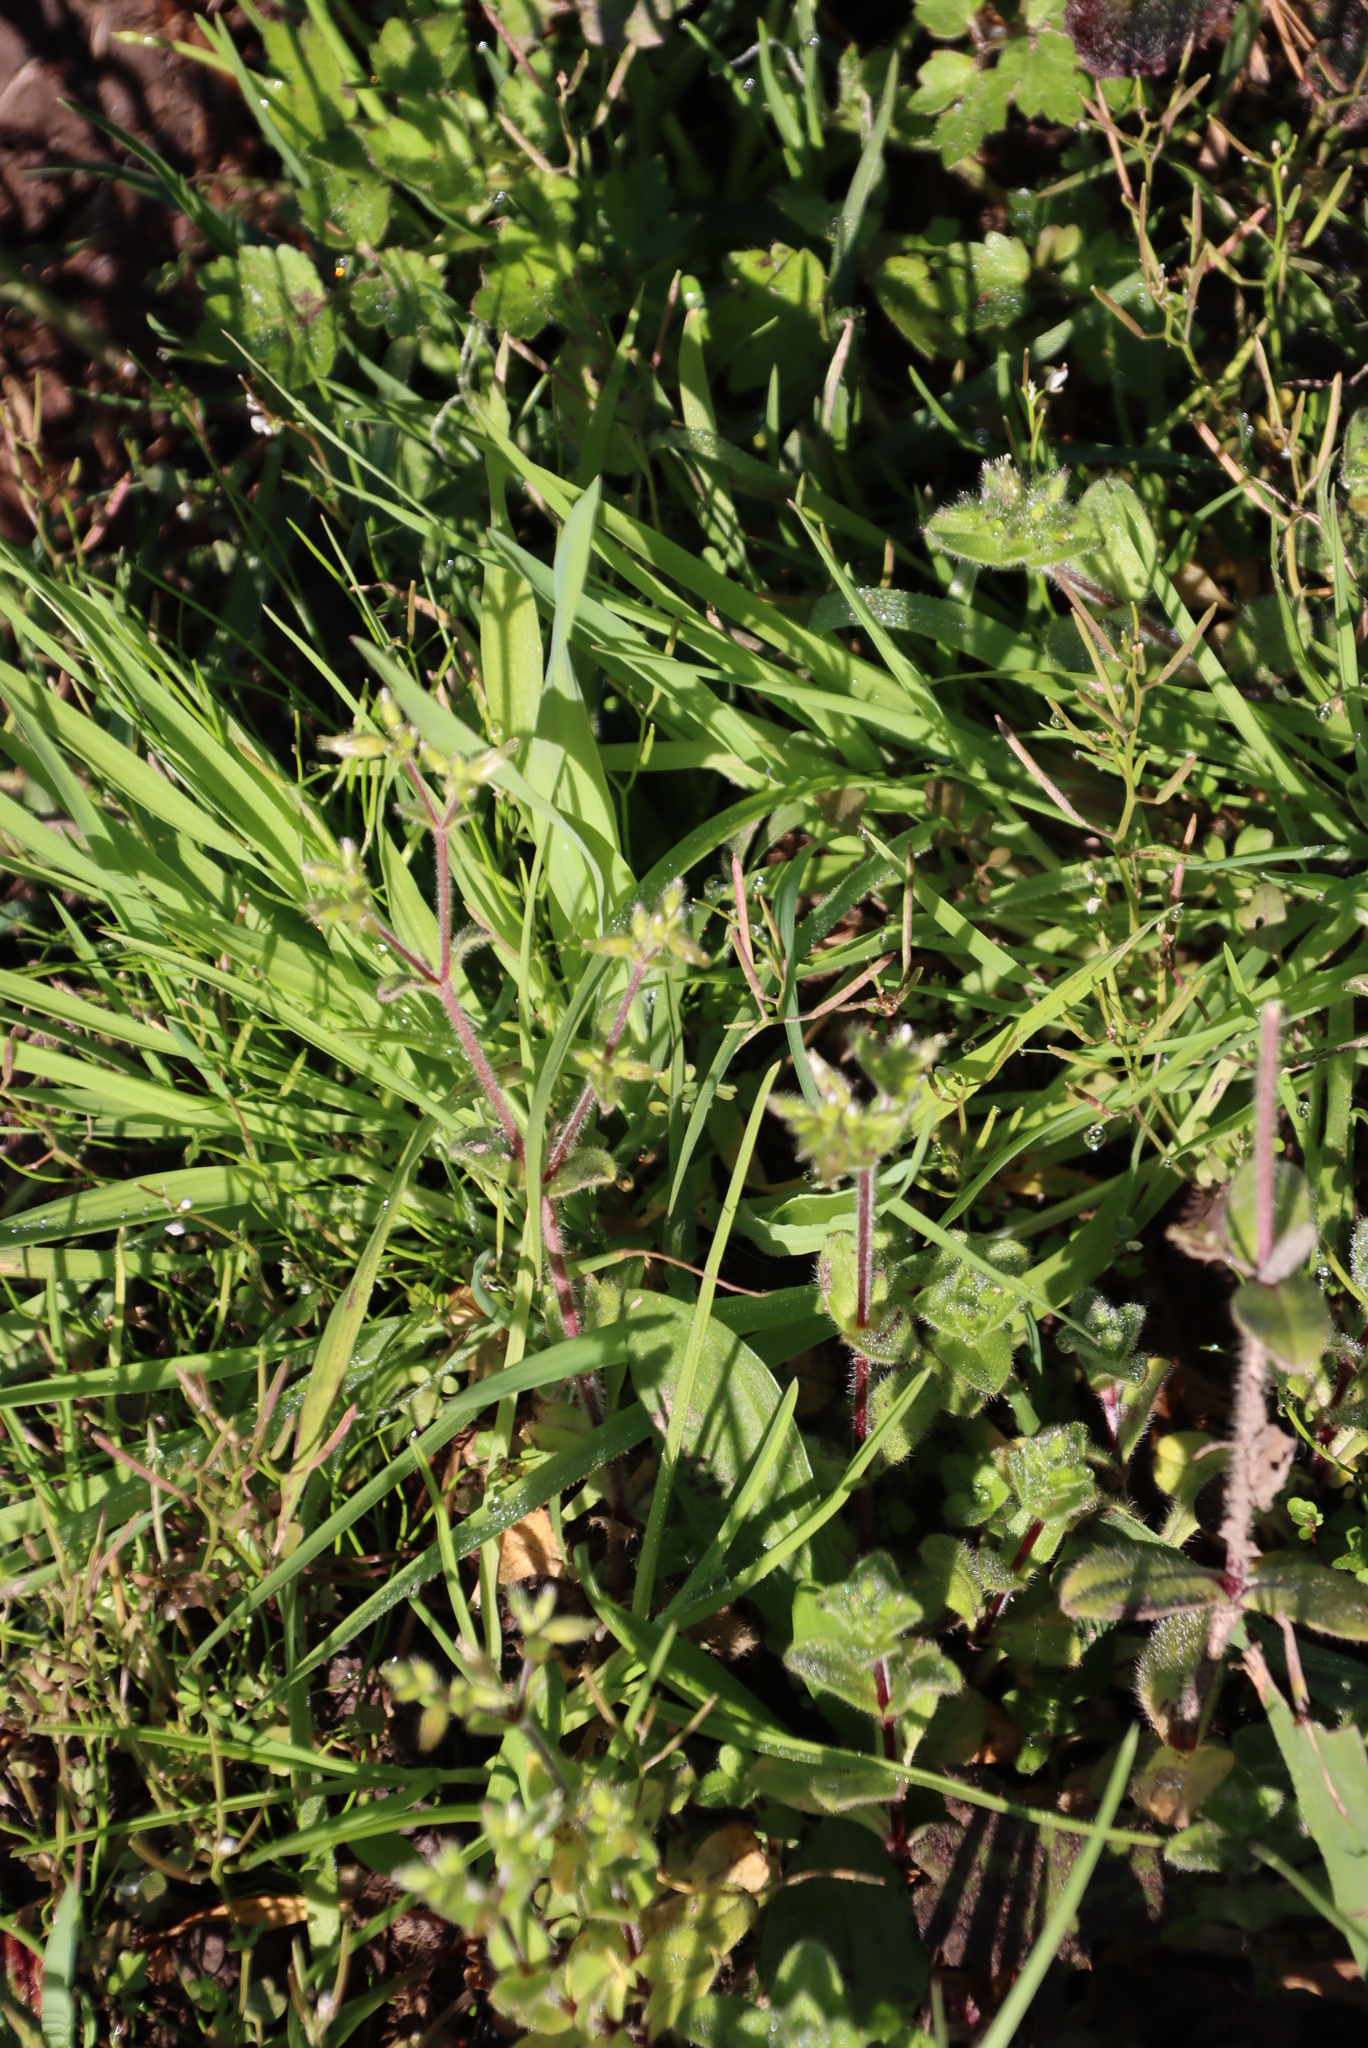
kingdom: Plantae
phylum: Tracheophyta
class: Magnoliopsida
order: Caryophyllales
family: Caryophyllaceae
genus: Cerastium
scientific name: Cerastium glomeratum
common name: Sticky chickweed
